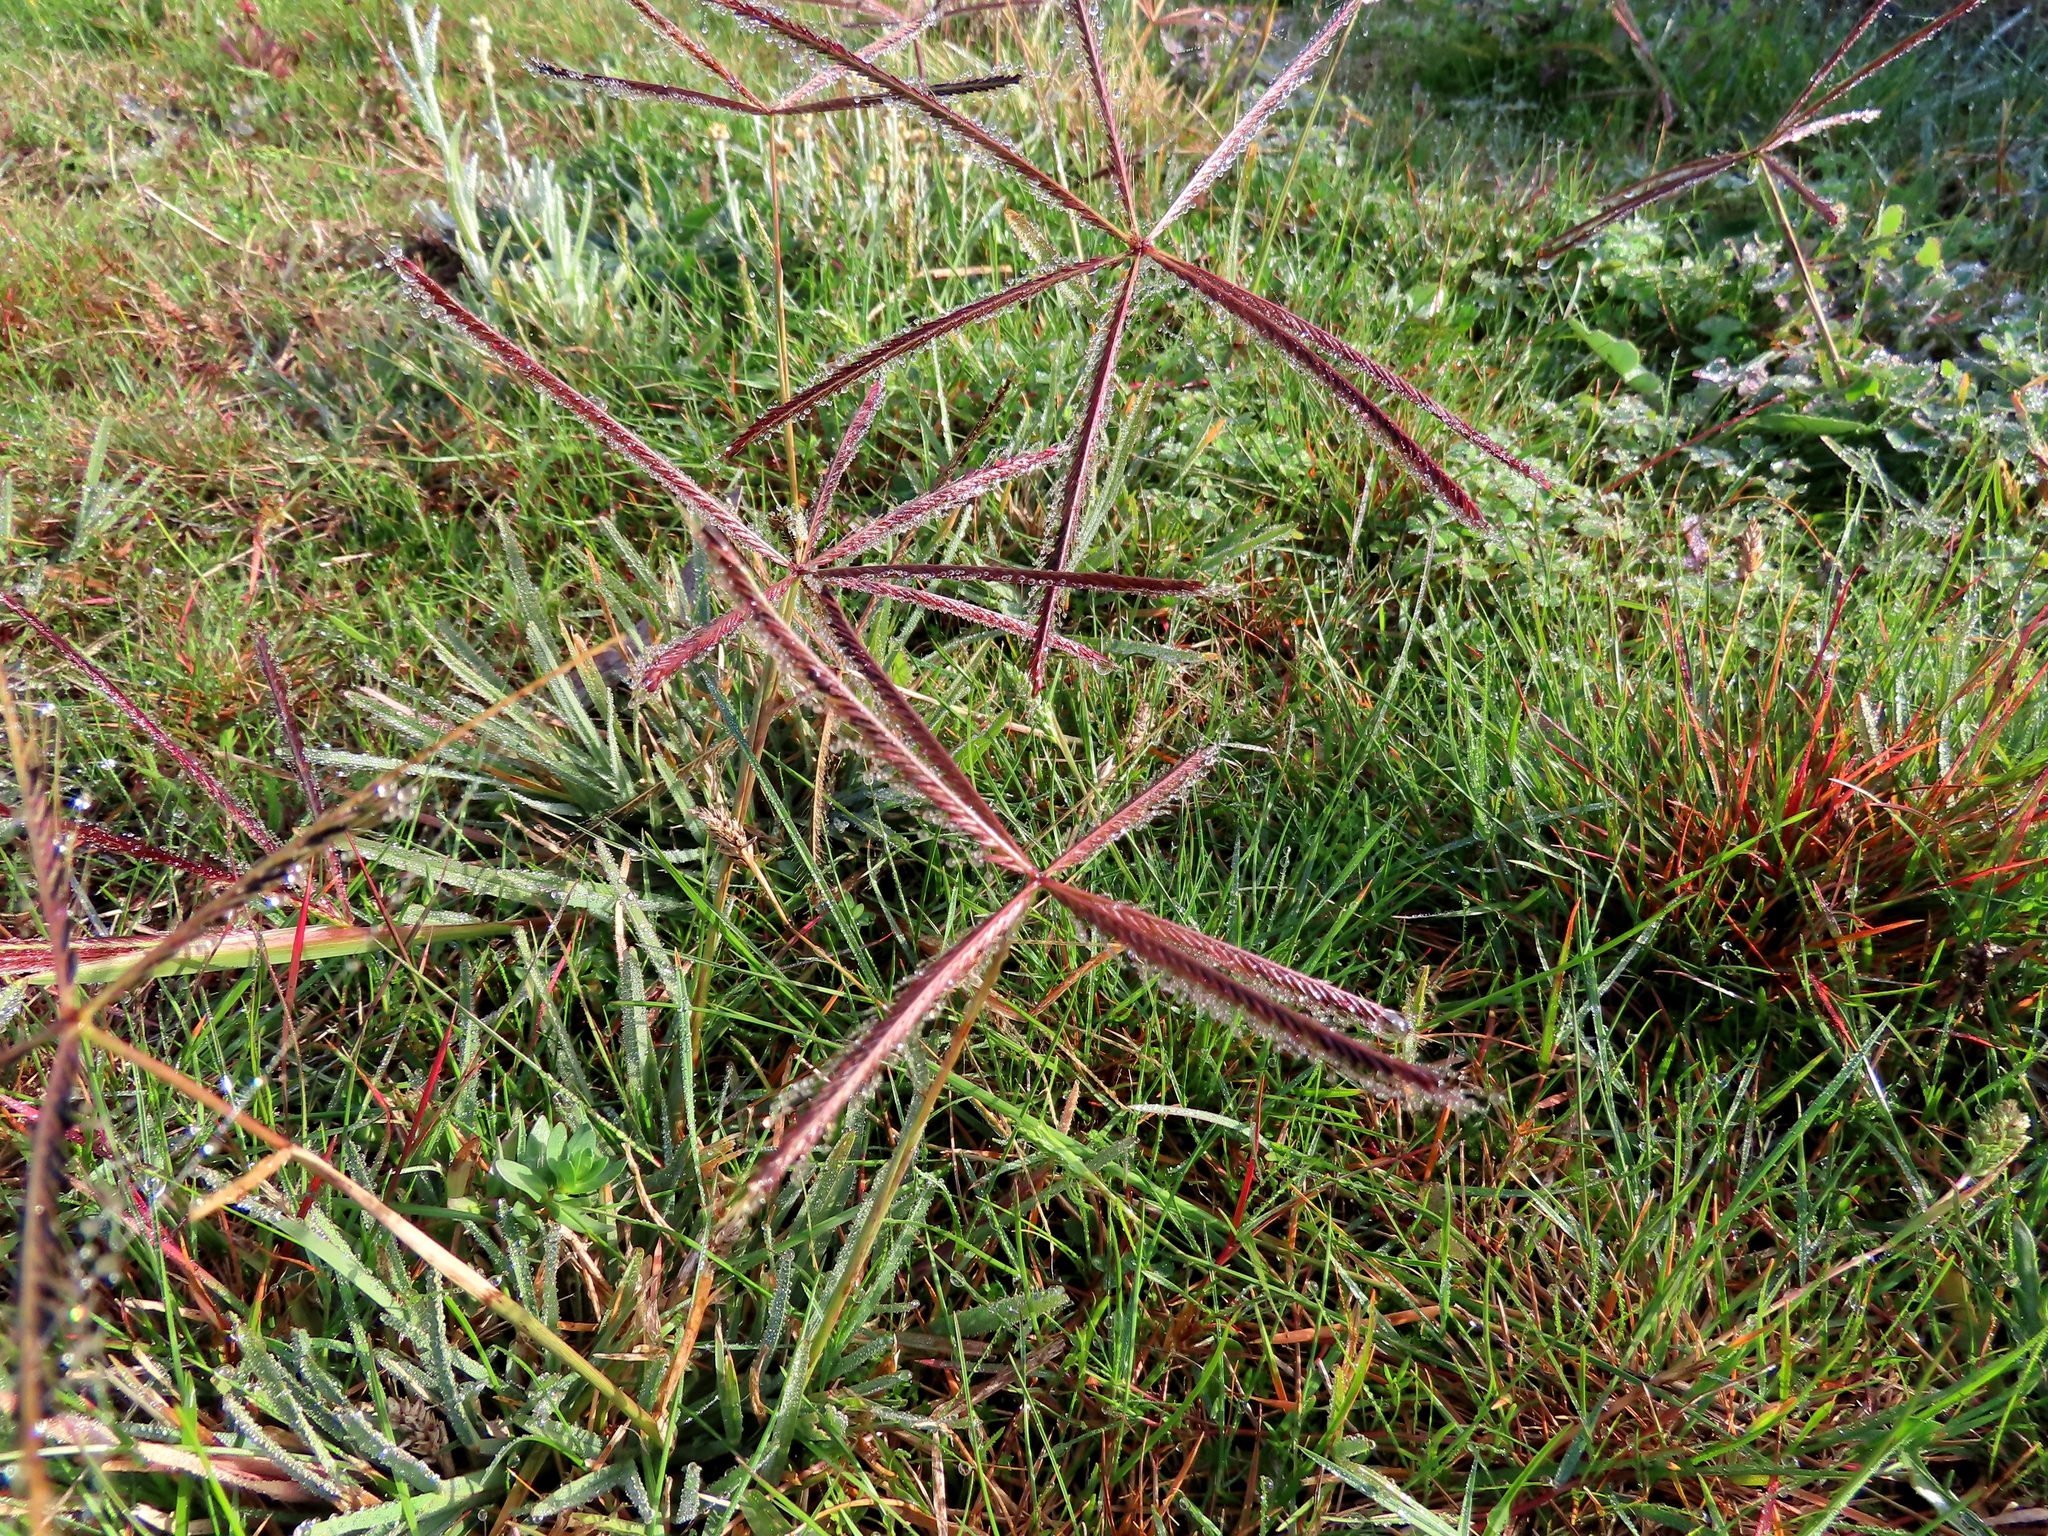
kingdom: Plantae
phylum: Tracheophyta
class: Liliopsida
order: Poales
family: Poaceae
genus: Chloris
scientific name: Chloris truncata
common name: Windmill-grass
